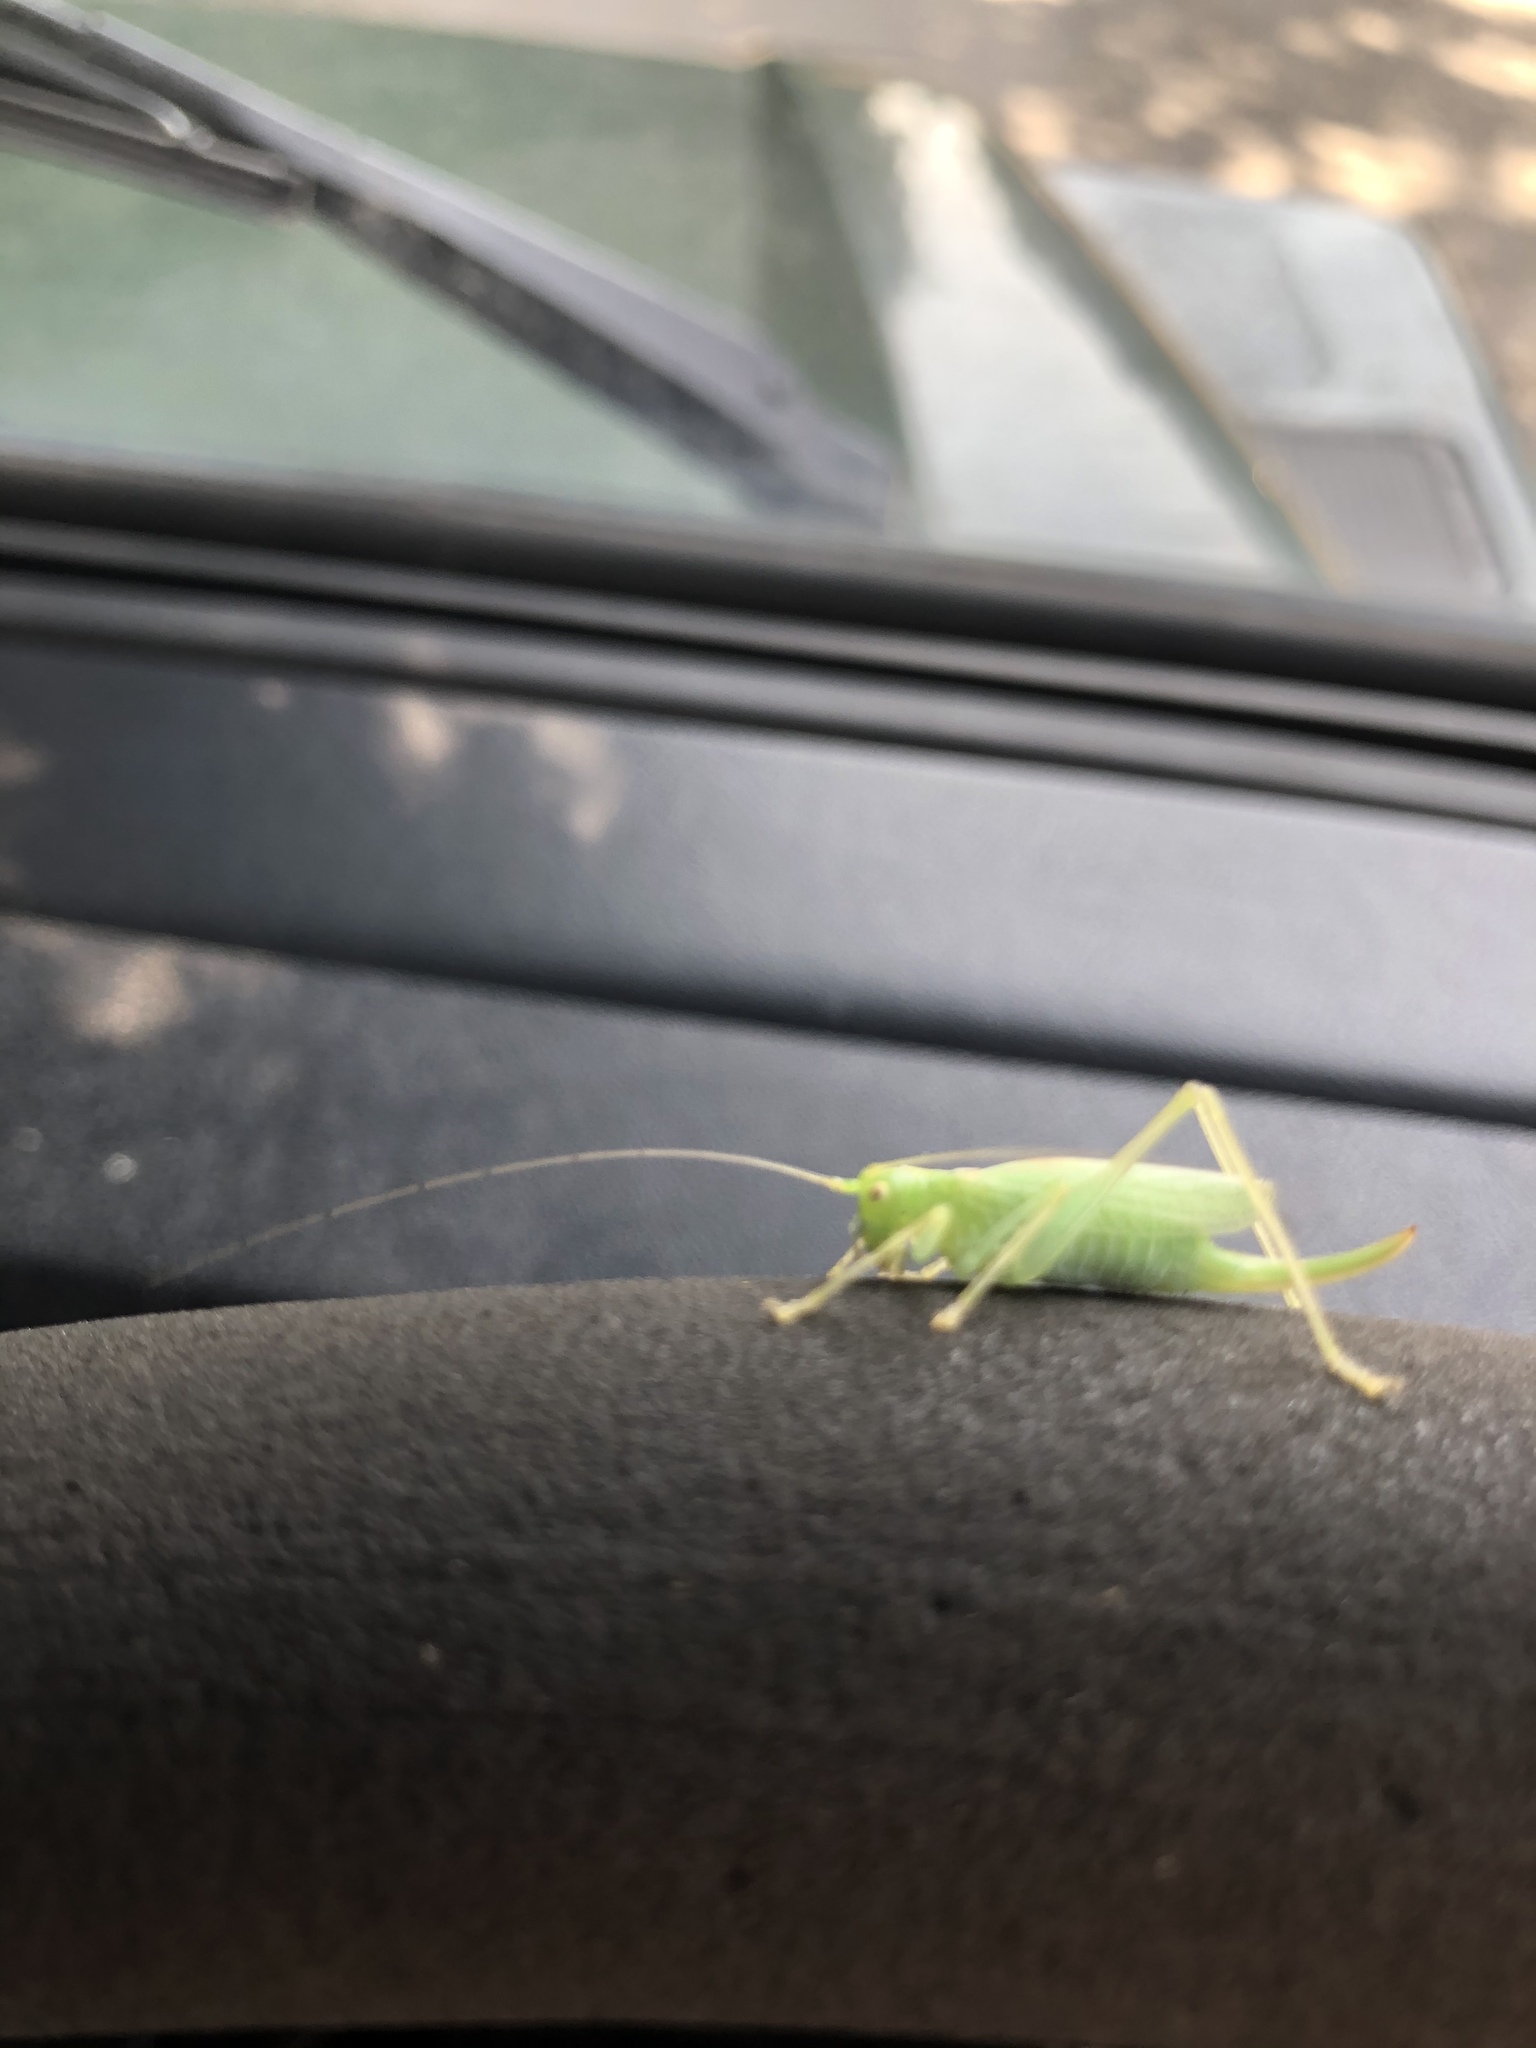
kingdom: Animalia
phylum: Arthropoda
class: Insecta
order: Orthoptera
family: Tettigoniidae
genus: Meconema
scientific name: Meconema thalassinum
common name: Oak bush-cricket
